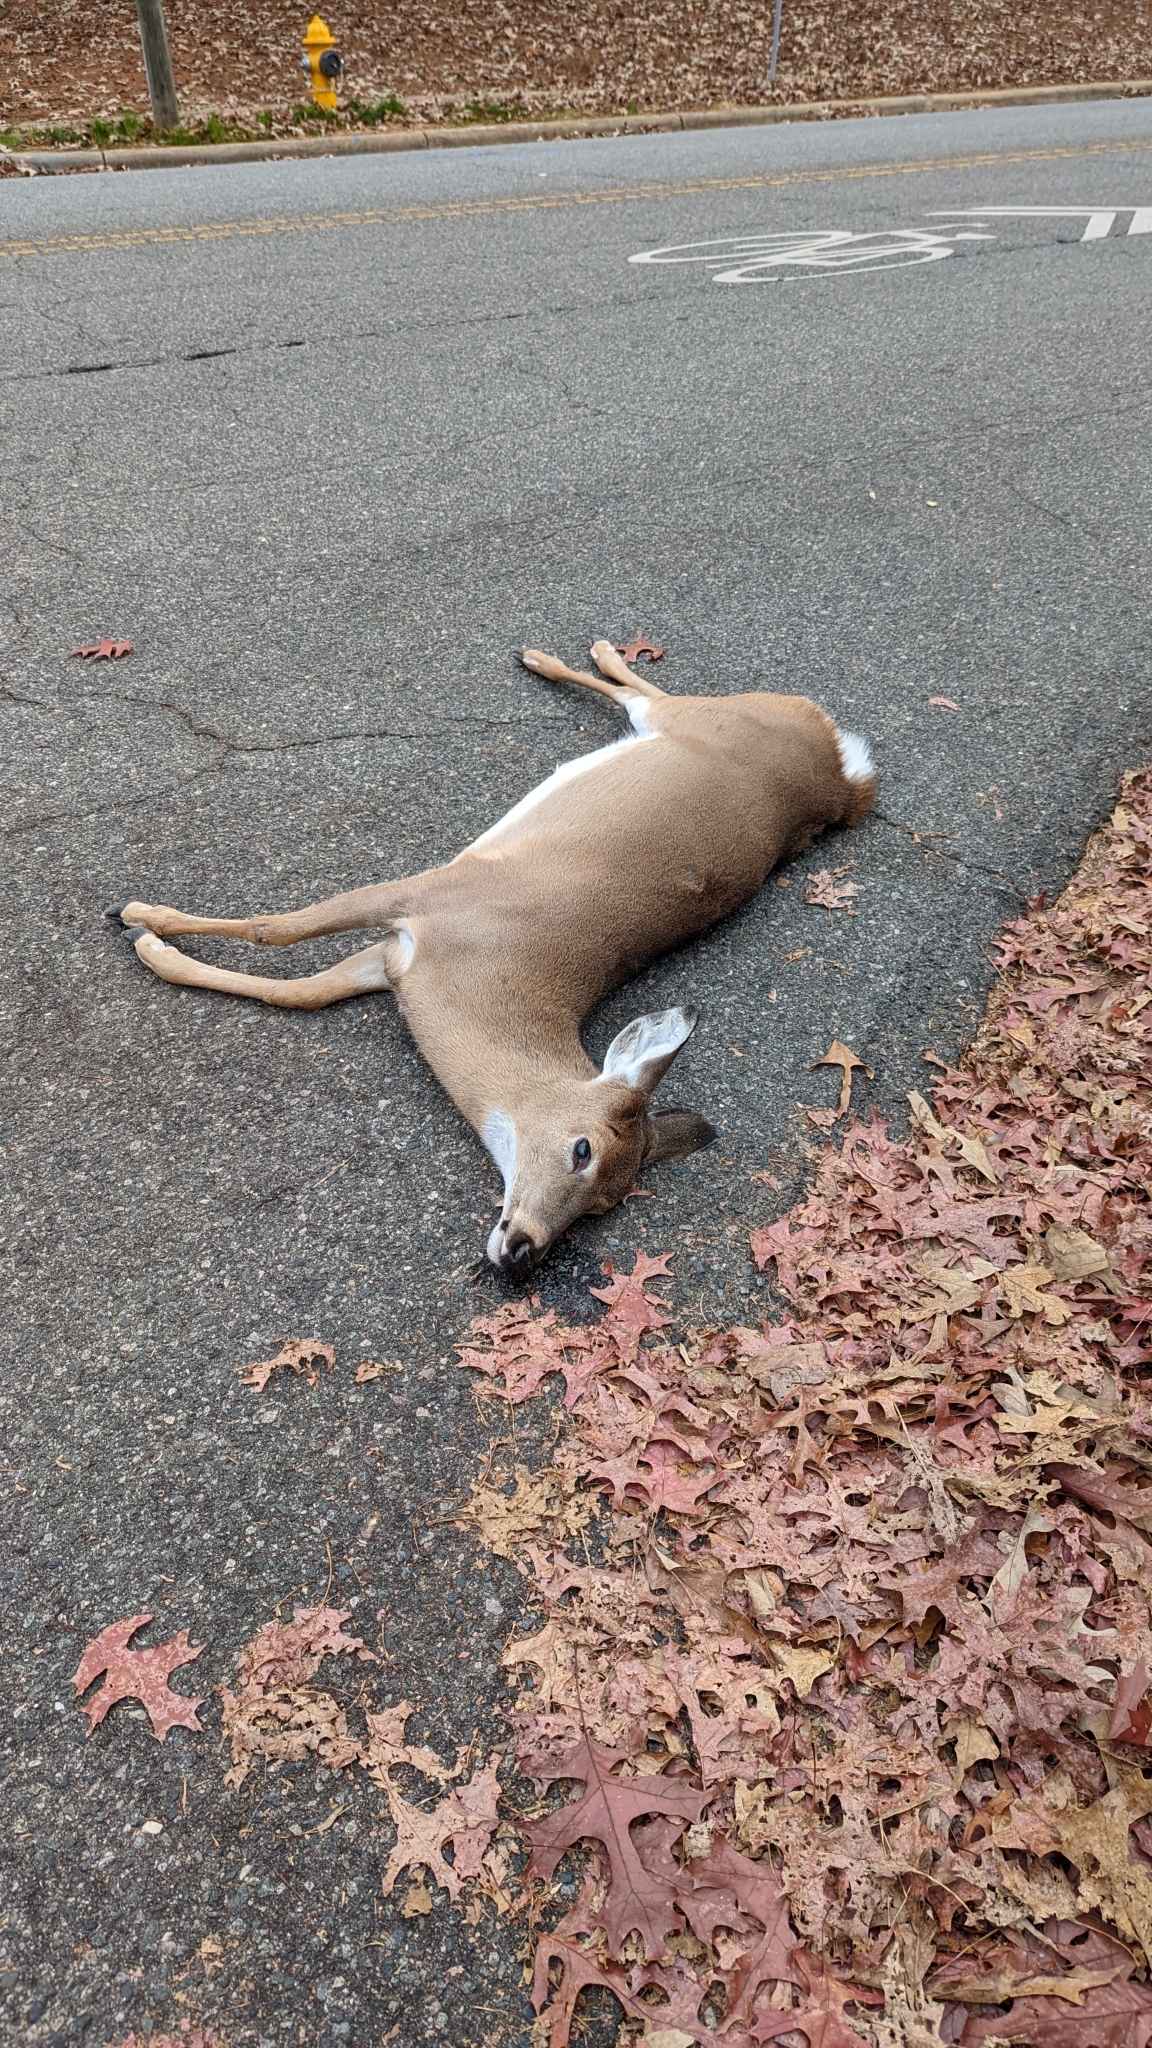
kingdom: Animalia
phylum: Chordata
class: Mammalia
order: Artiodactyla
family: Cervidae
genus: Odocoileus
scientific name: Odocoileus virginianus
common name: White-tailed deer
